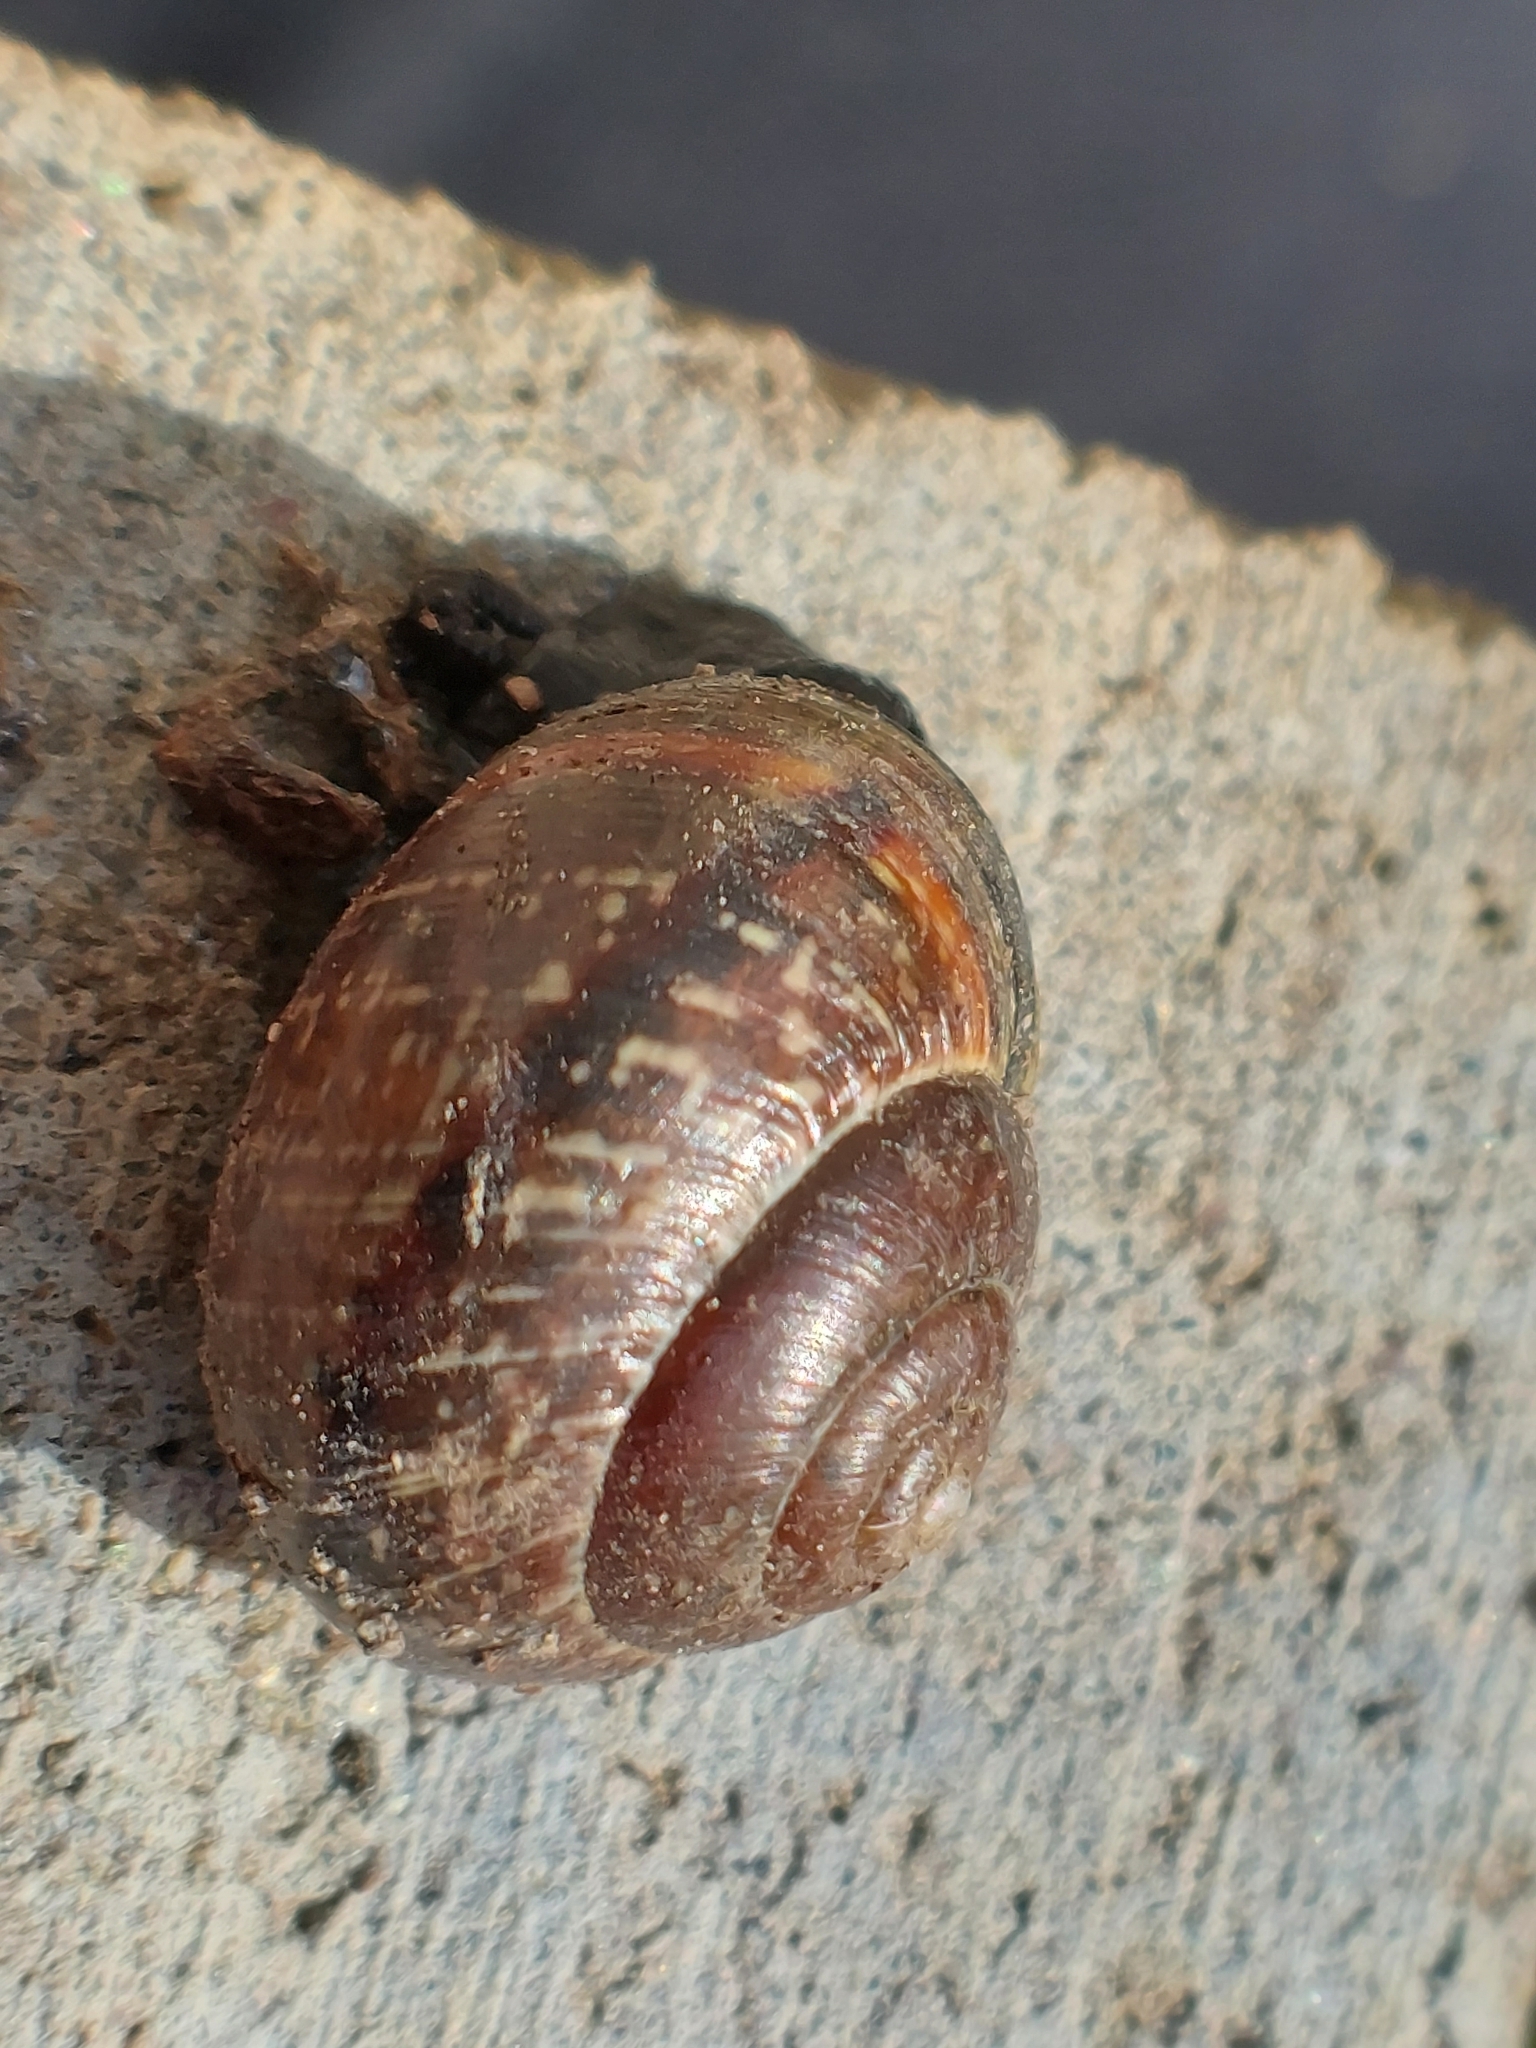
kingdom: Animalia
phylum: Mollusca
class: Gastropoda
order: Stylommatophora
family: Helicidae
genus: Arianta
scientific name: Arianta arbustorum
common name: Copse snail
